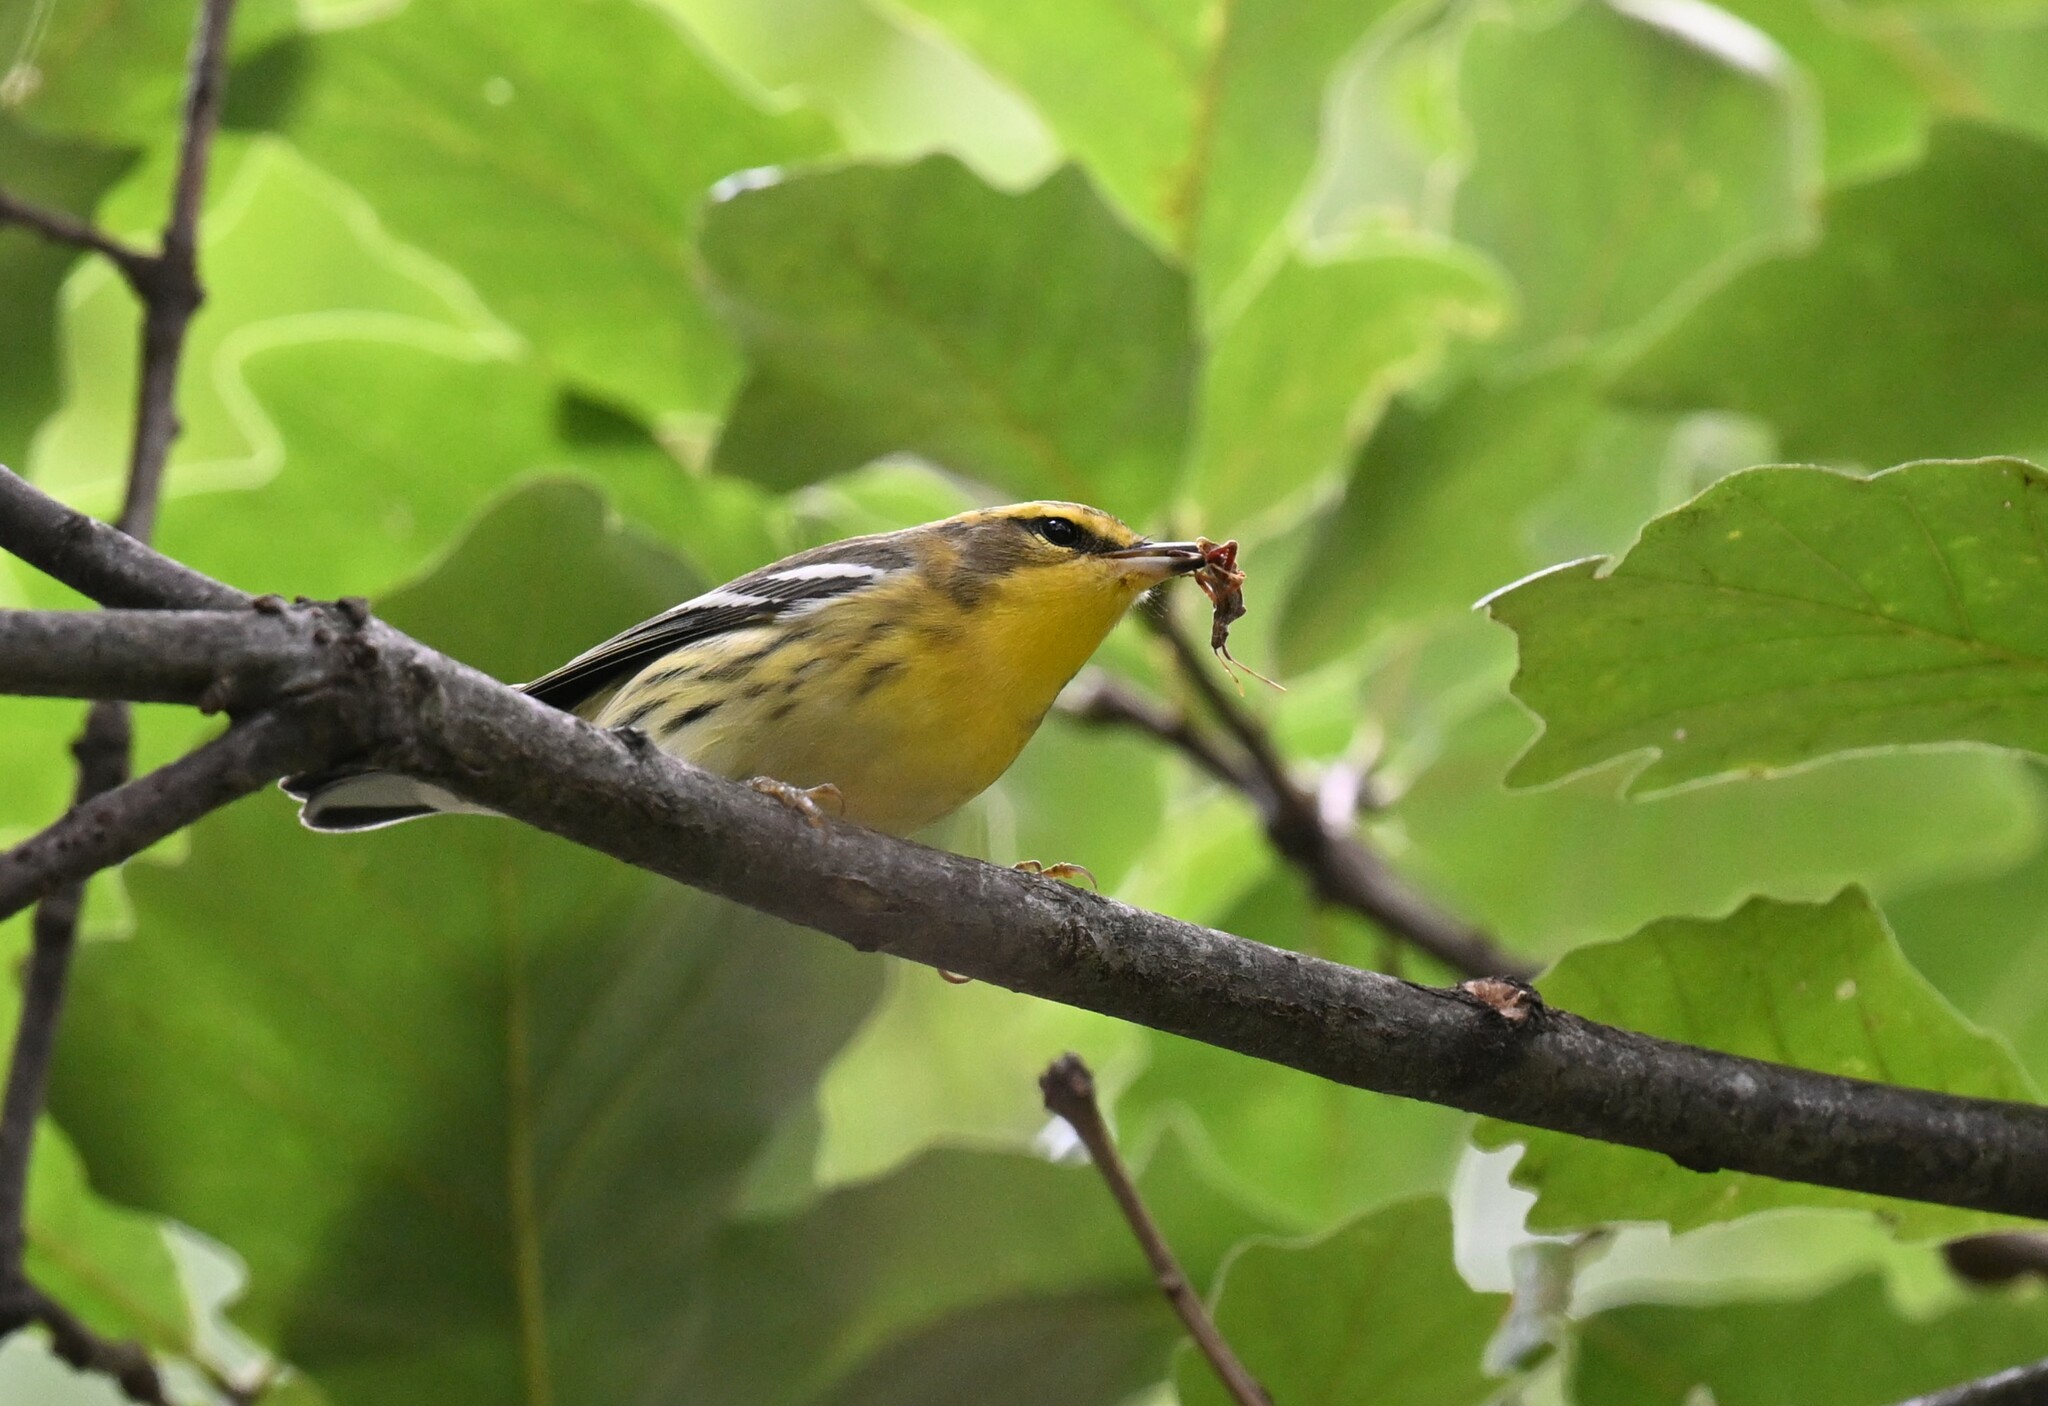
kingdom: Animalia
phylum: Chordata
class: Aves
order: Passeriformes
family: Parulidae
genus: Setophaga
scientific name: Setophaga fusca
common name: Blackburnian warbler
